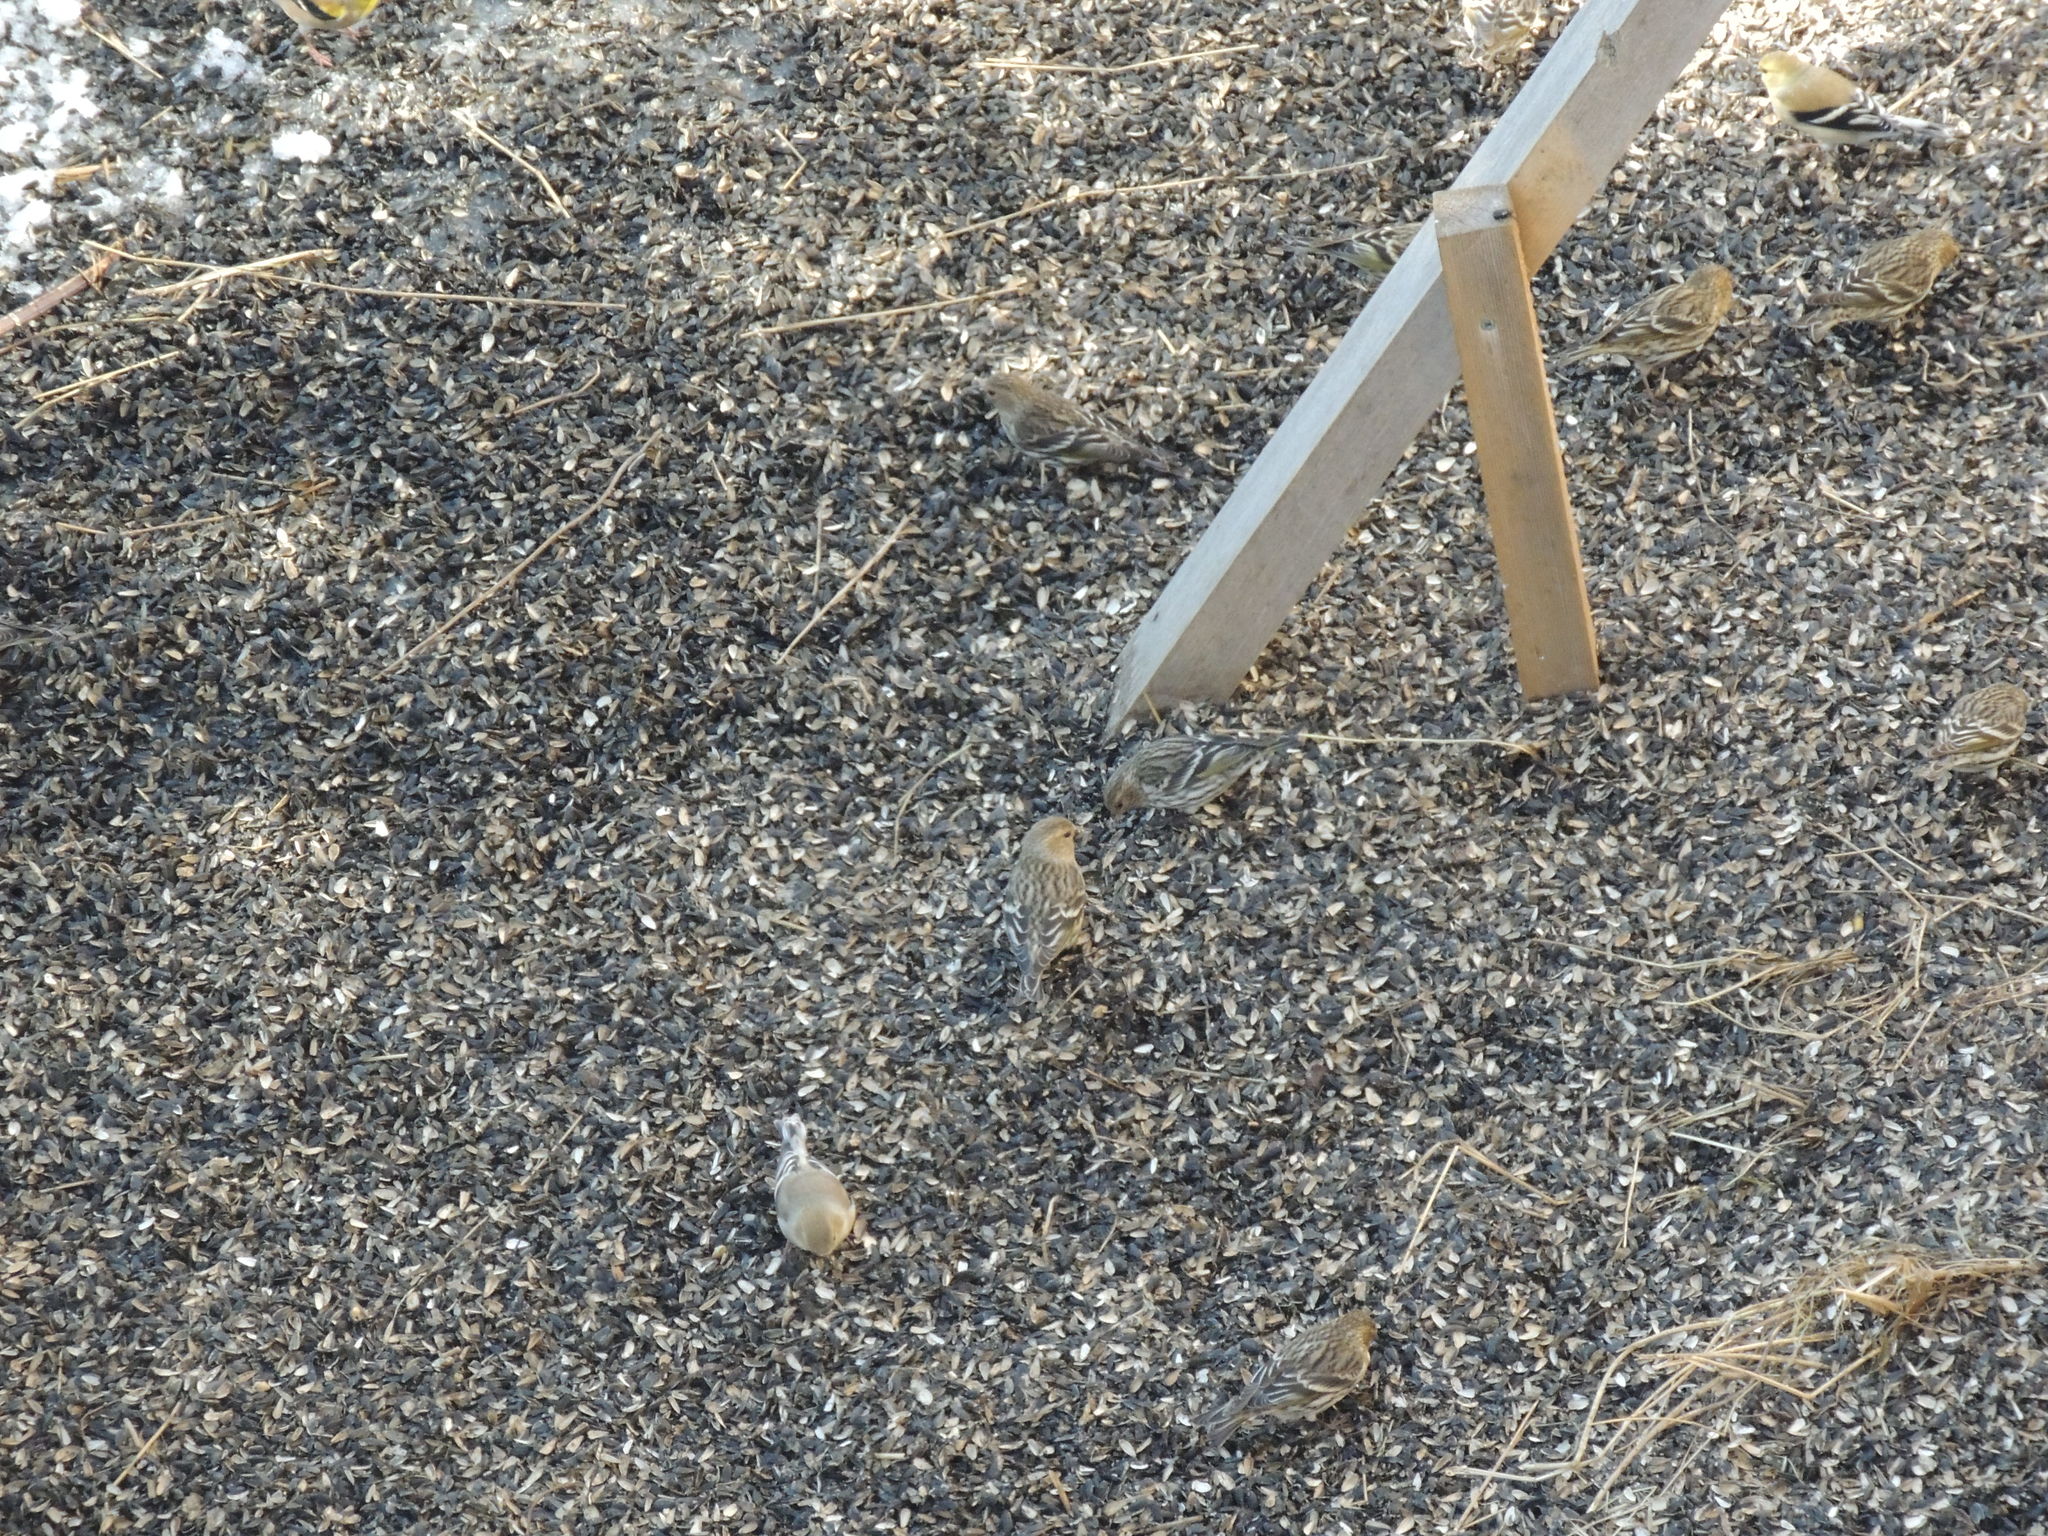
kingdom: Animalia
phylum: Chordata
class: Aves
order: Passeriformes
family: Fringillidae
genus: Spinus
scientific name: Spinus pinus
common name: Pine siskin
